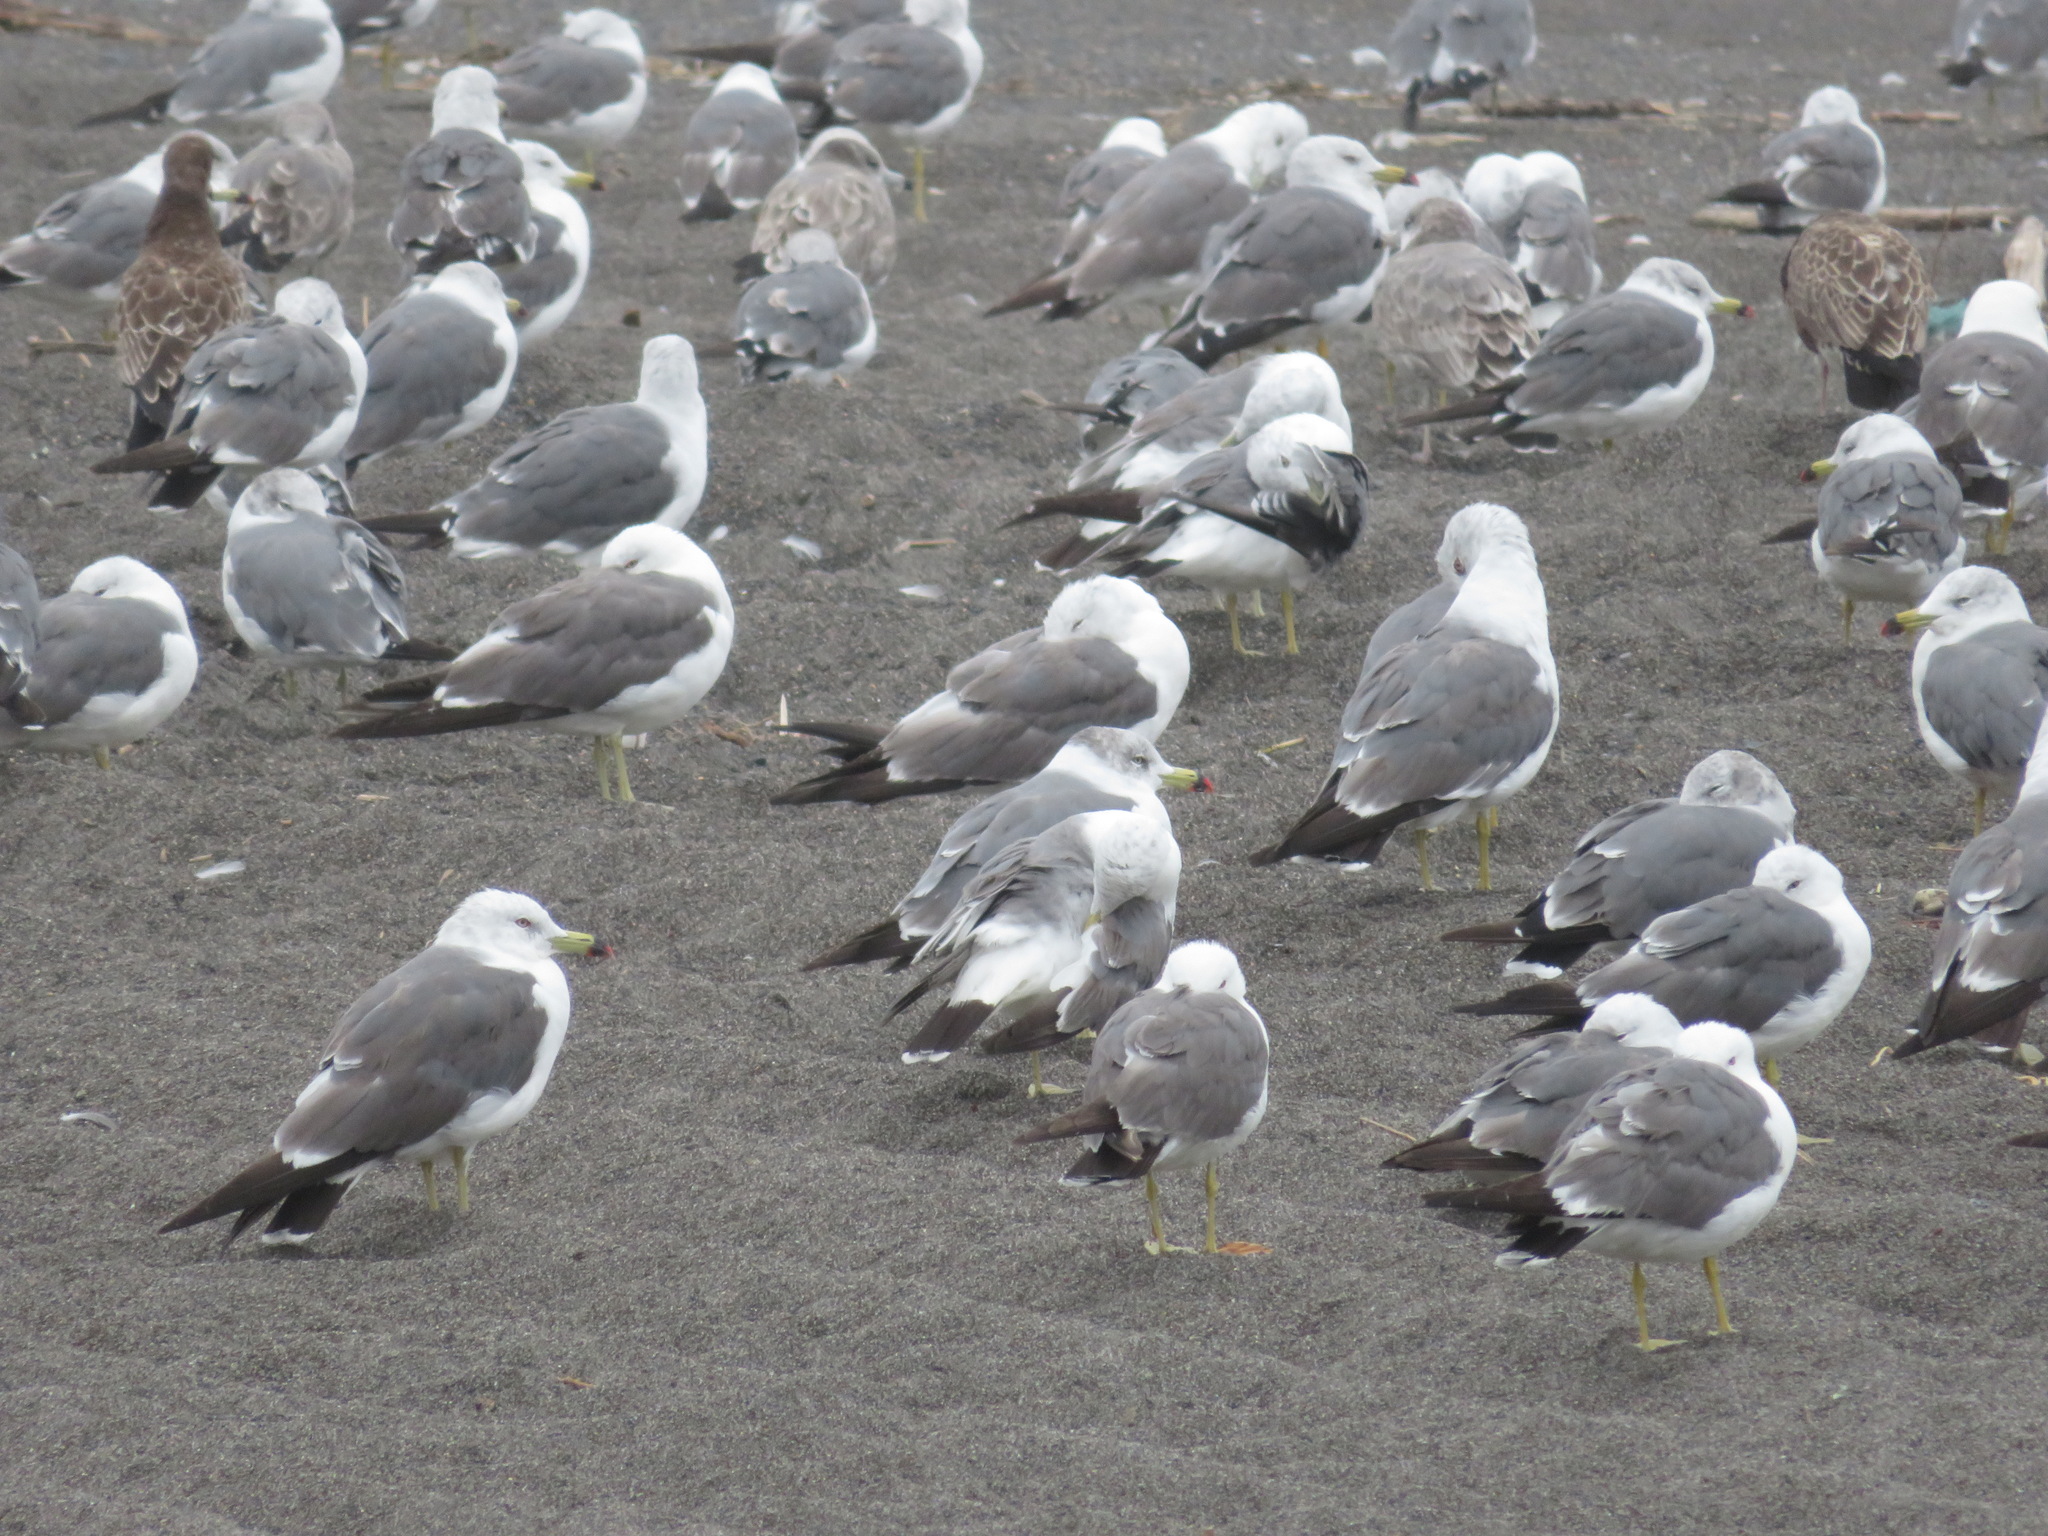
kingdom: Animalia
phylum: Chordata
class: Aves
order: Charadriiformes
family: Laridae
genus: Larus
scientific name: Larus crassirostris
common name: Black-tailed gull
